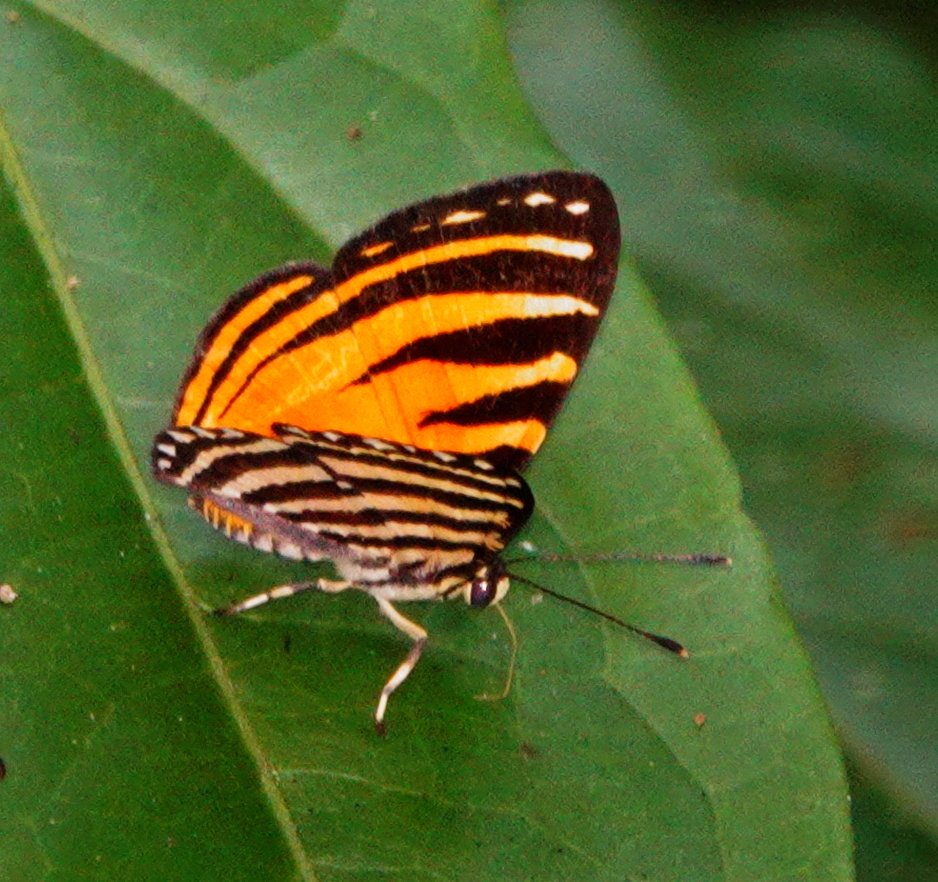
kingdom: Animalia
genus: Hyphilaria
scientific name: Hyphilaria parthenis
